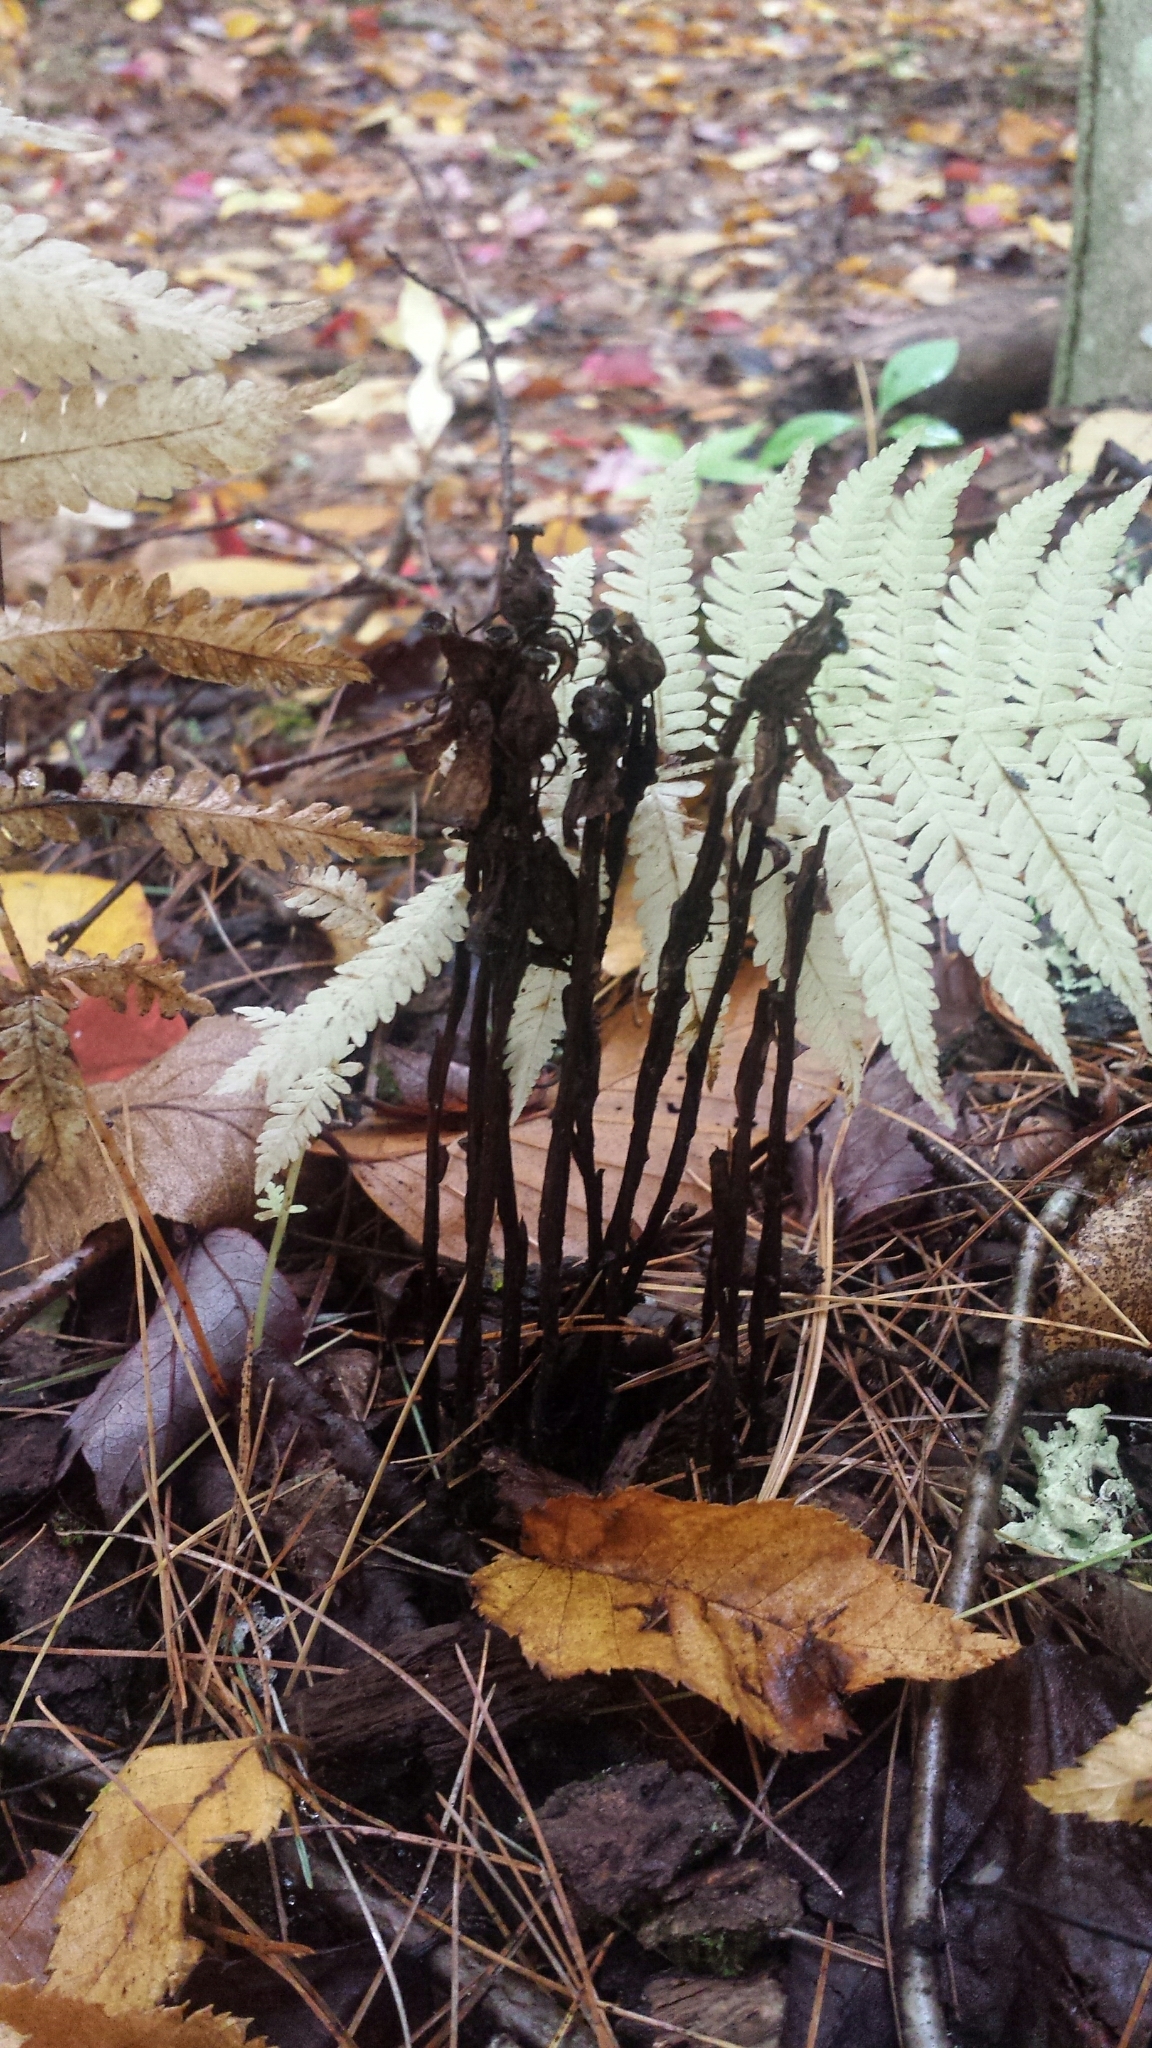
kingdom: Plantae
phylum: Tracheophyta
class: Magnoliopsida
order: Ericales
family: Ericaceae
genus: Monotropa
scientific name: Monotropa uniflora
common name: Convulsion root
